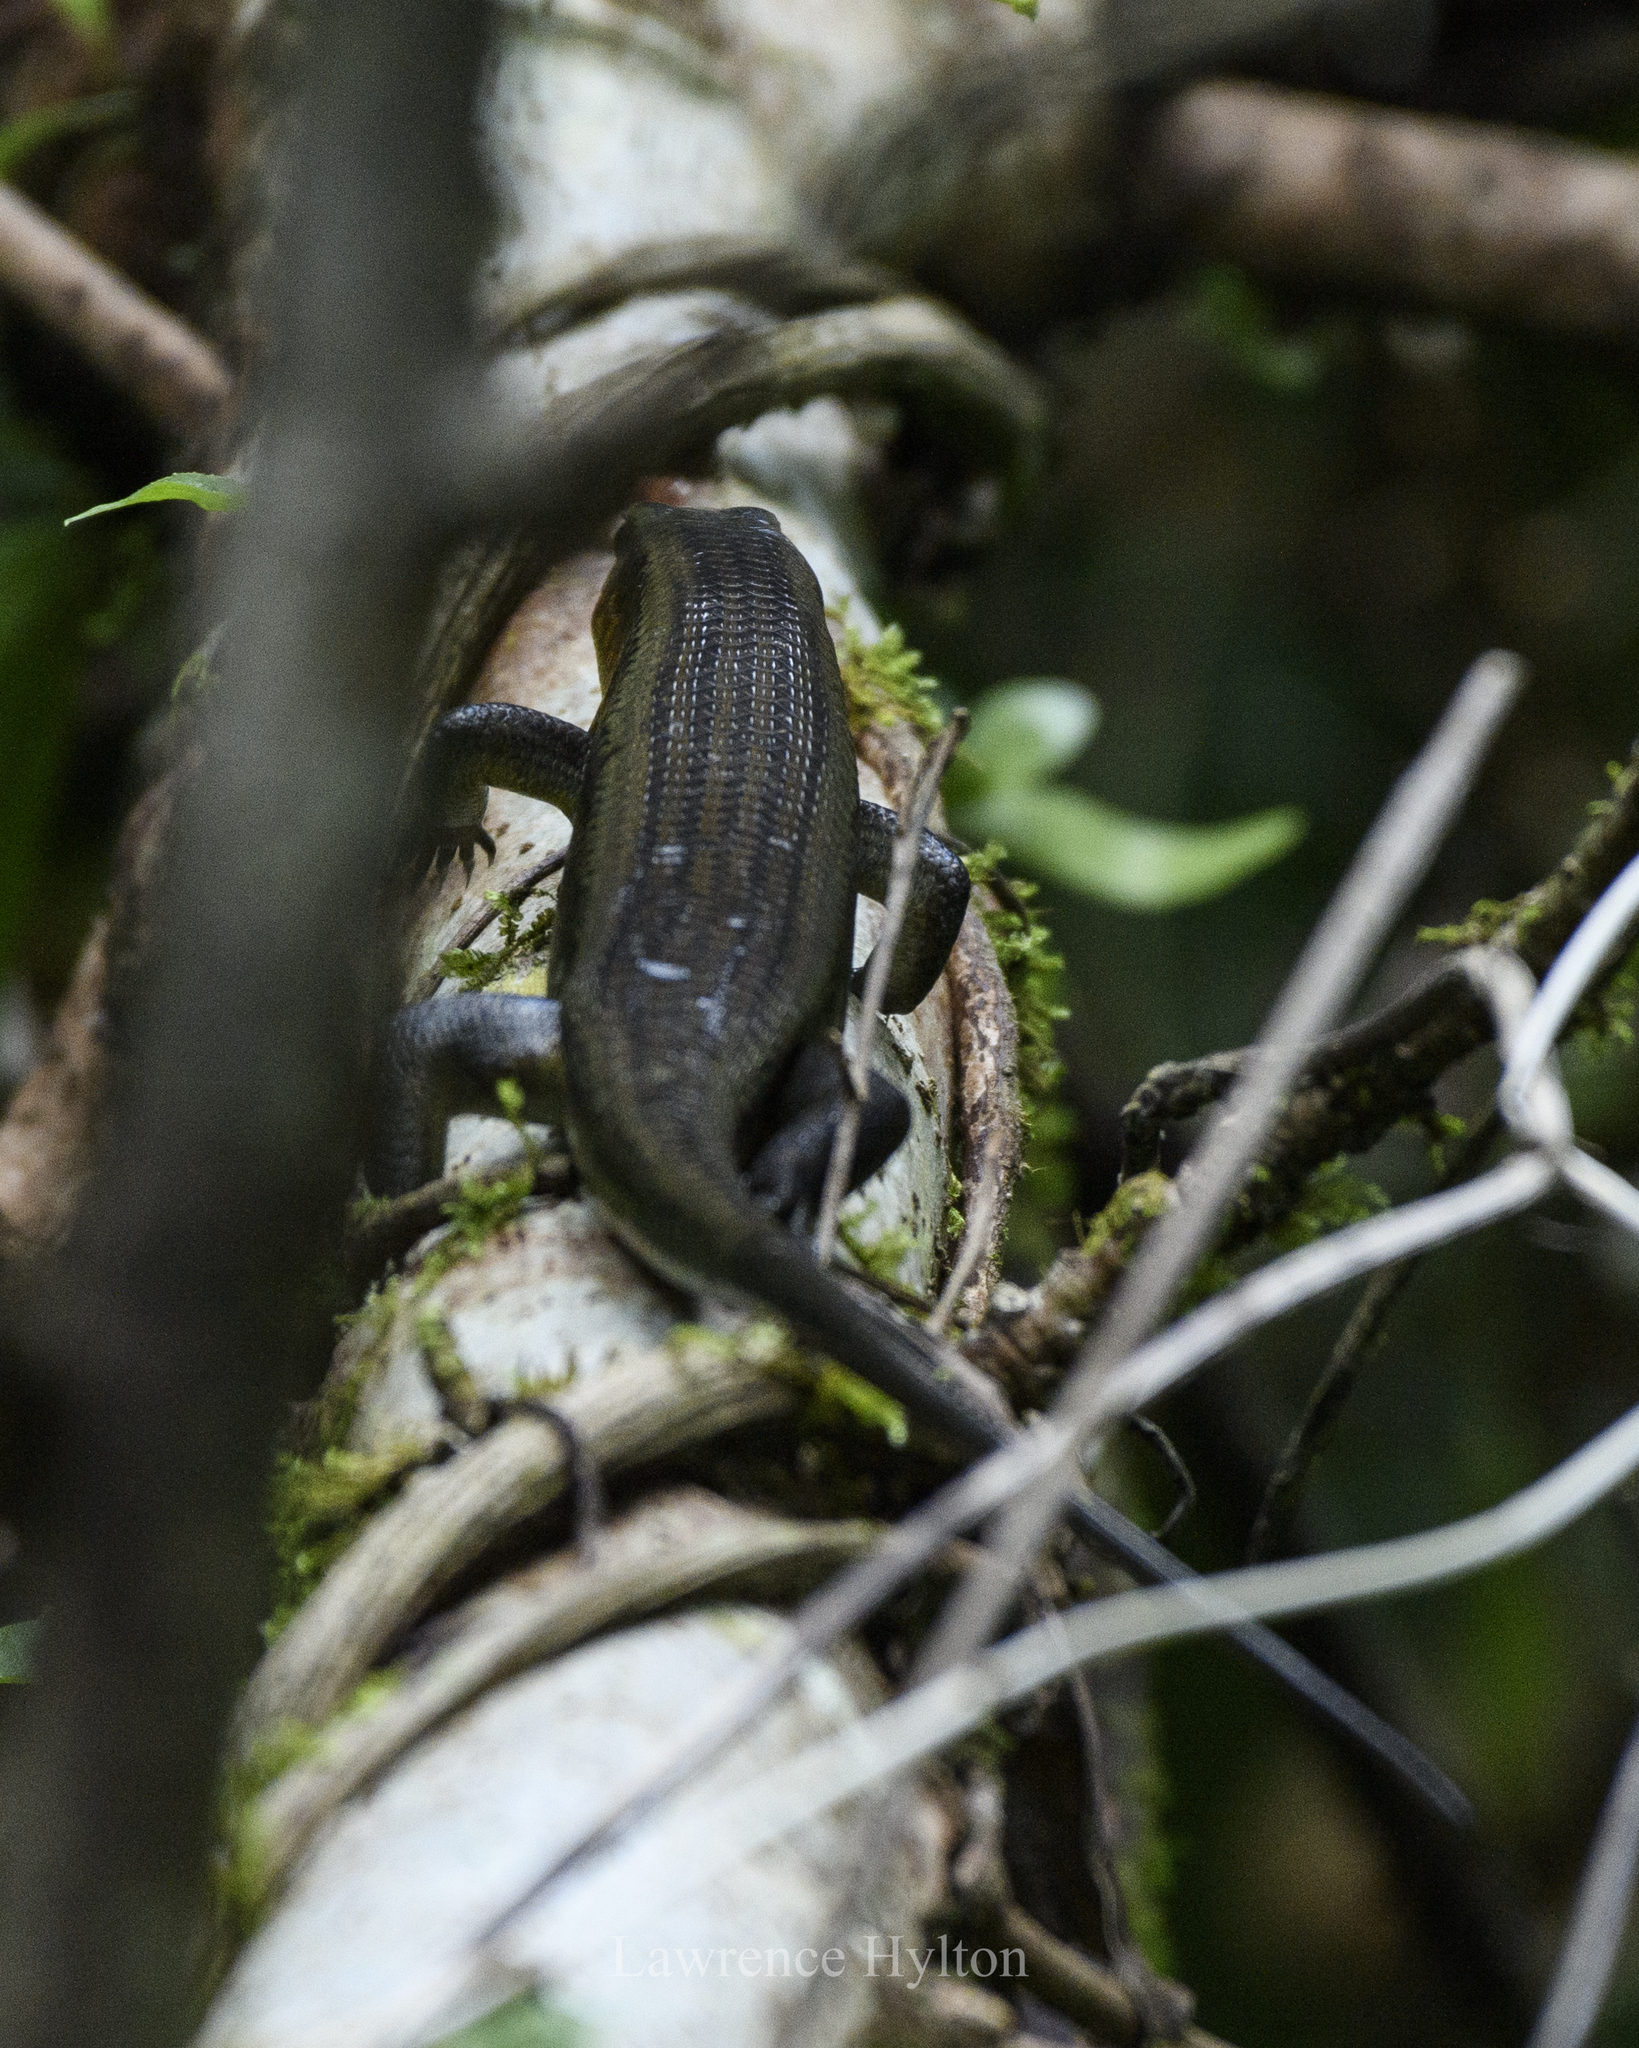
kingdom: Animalia
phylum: Chordata
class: Squamata
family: Scincidae
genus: Eutropis
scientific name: Eutropis multifasciata
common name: Common mabuya
